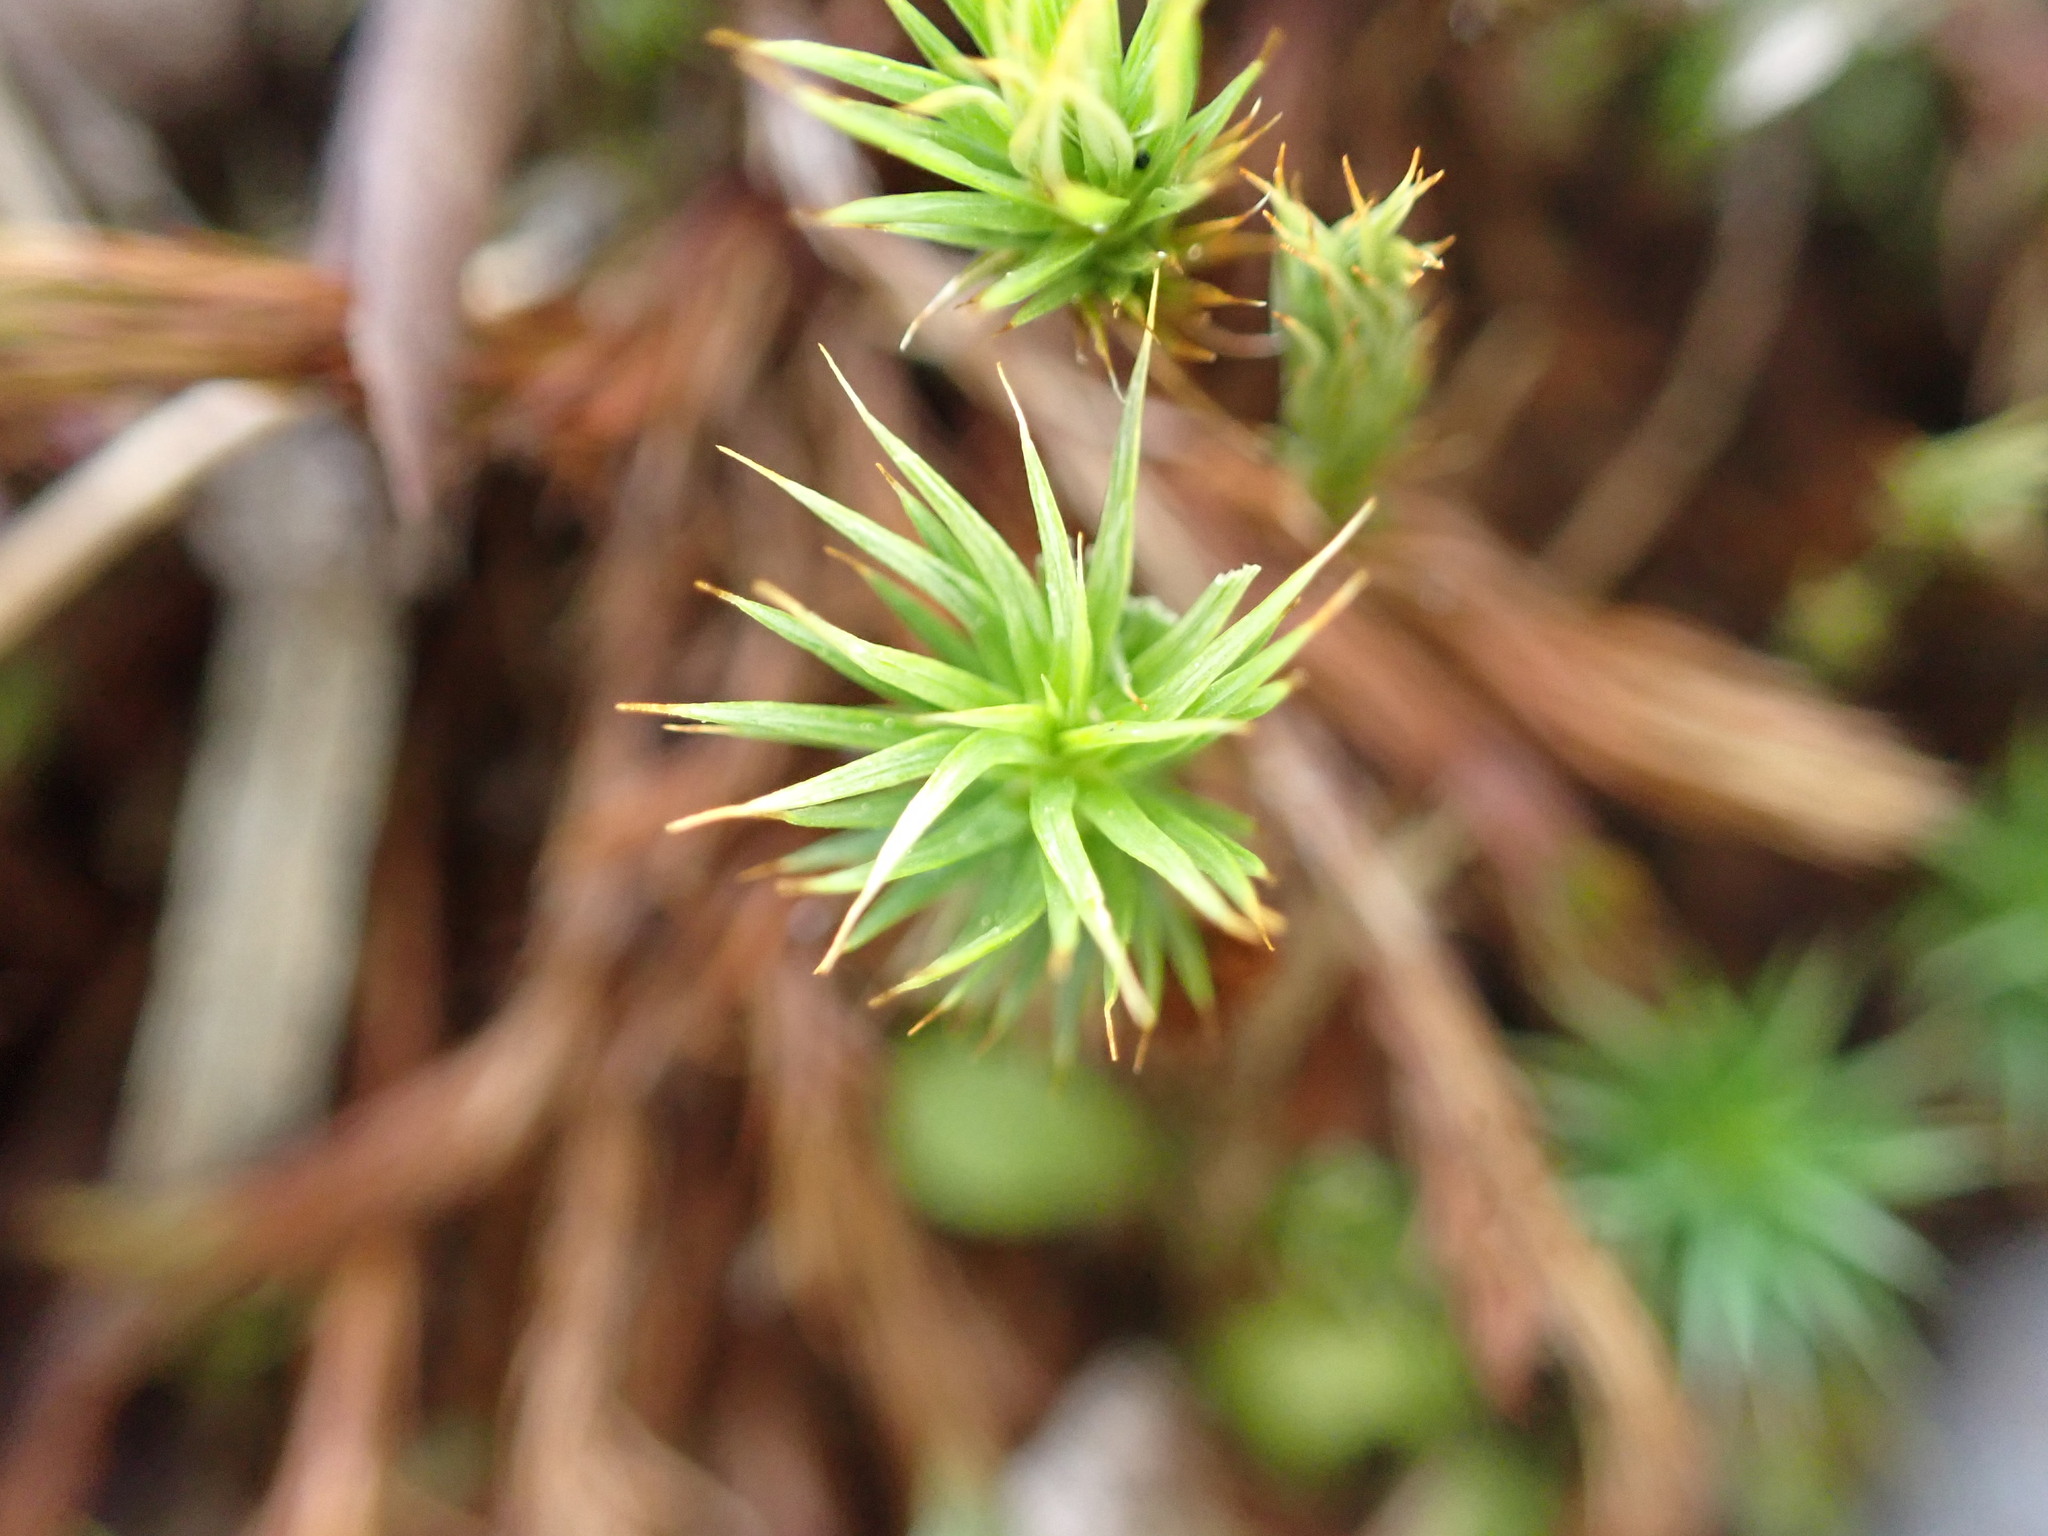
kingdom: Plantae
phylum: Bryophyta
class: Polytrichopsida
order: Polytrichales
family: Polytrichaceae
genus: Polytrichum
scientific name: Polytrichum juniperinum
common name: Juniper haircap moss
